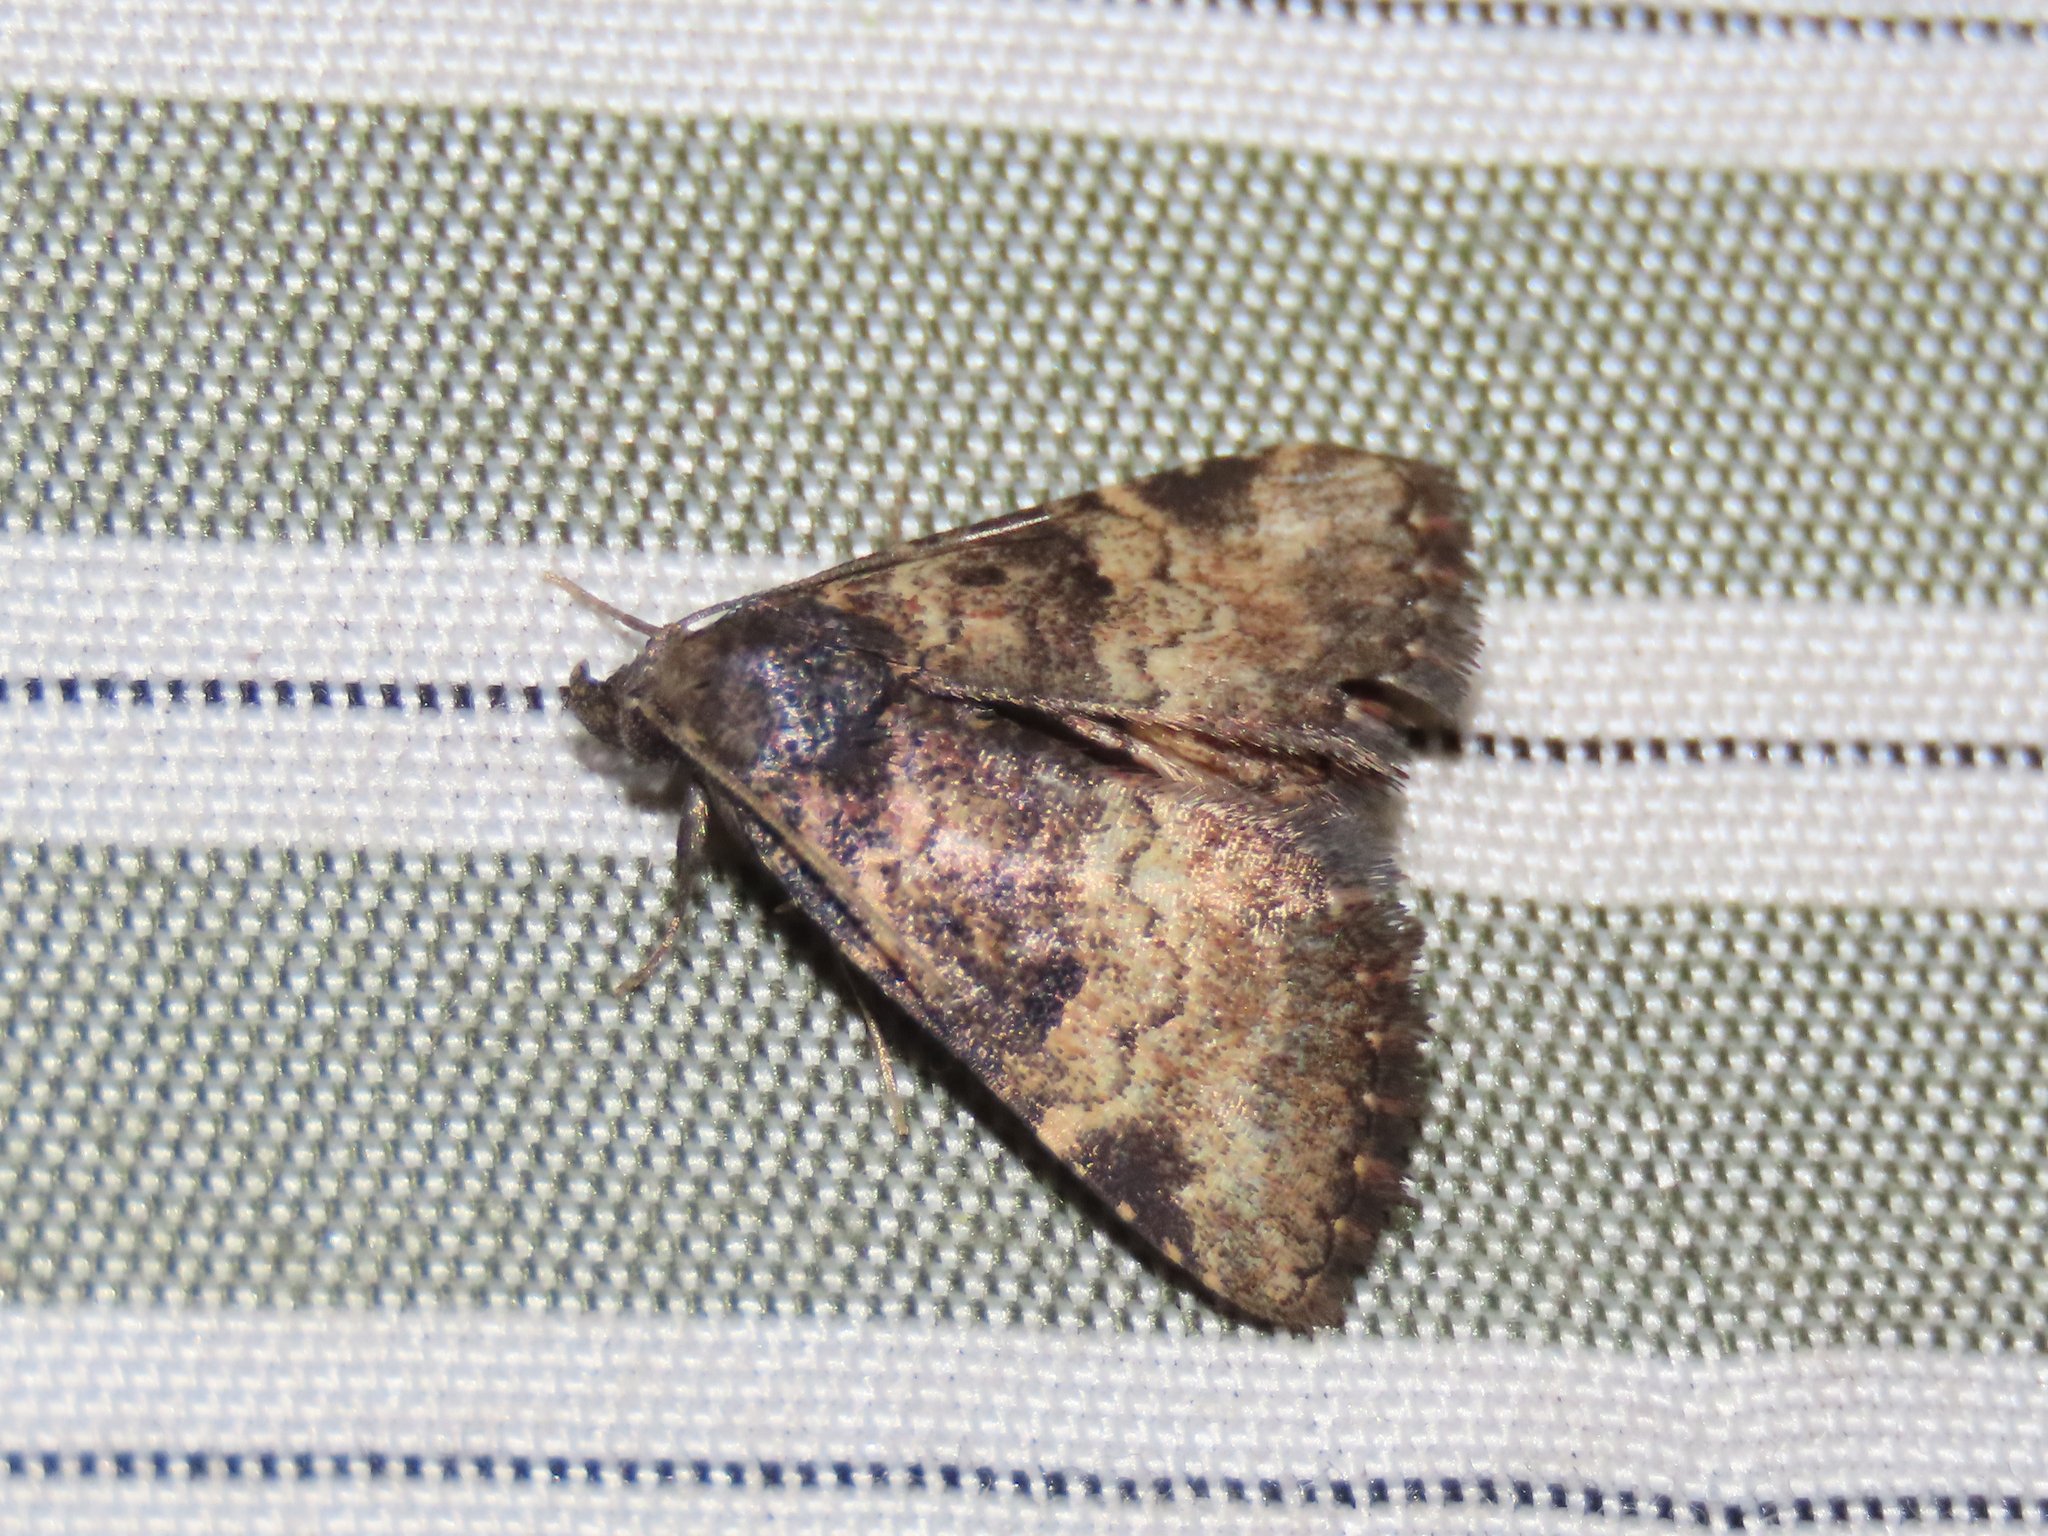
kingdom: Animalia
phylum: Arthropoda
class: Insecta
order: Lepidoptera
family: Erebidae
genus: Metalectra
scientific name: Metalectra edilis
